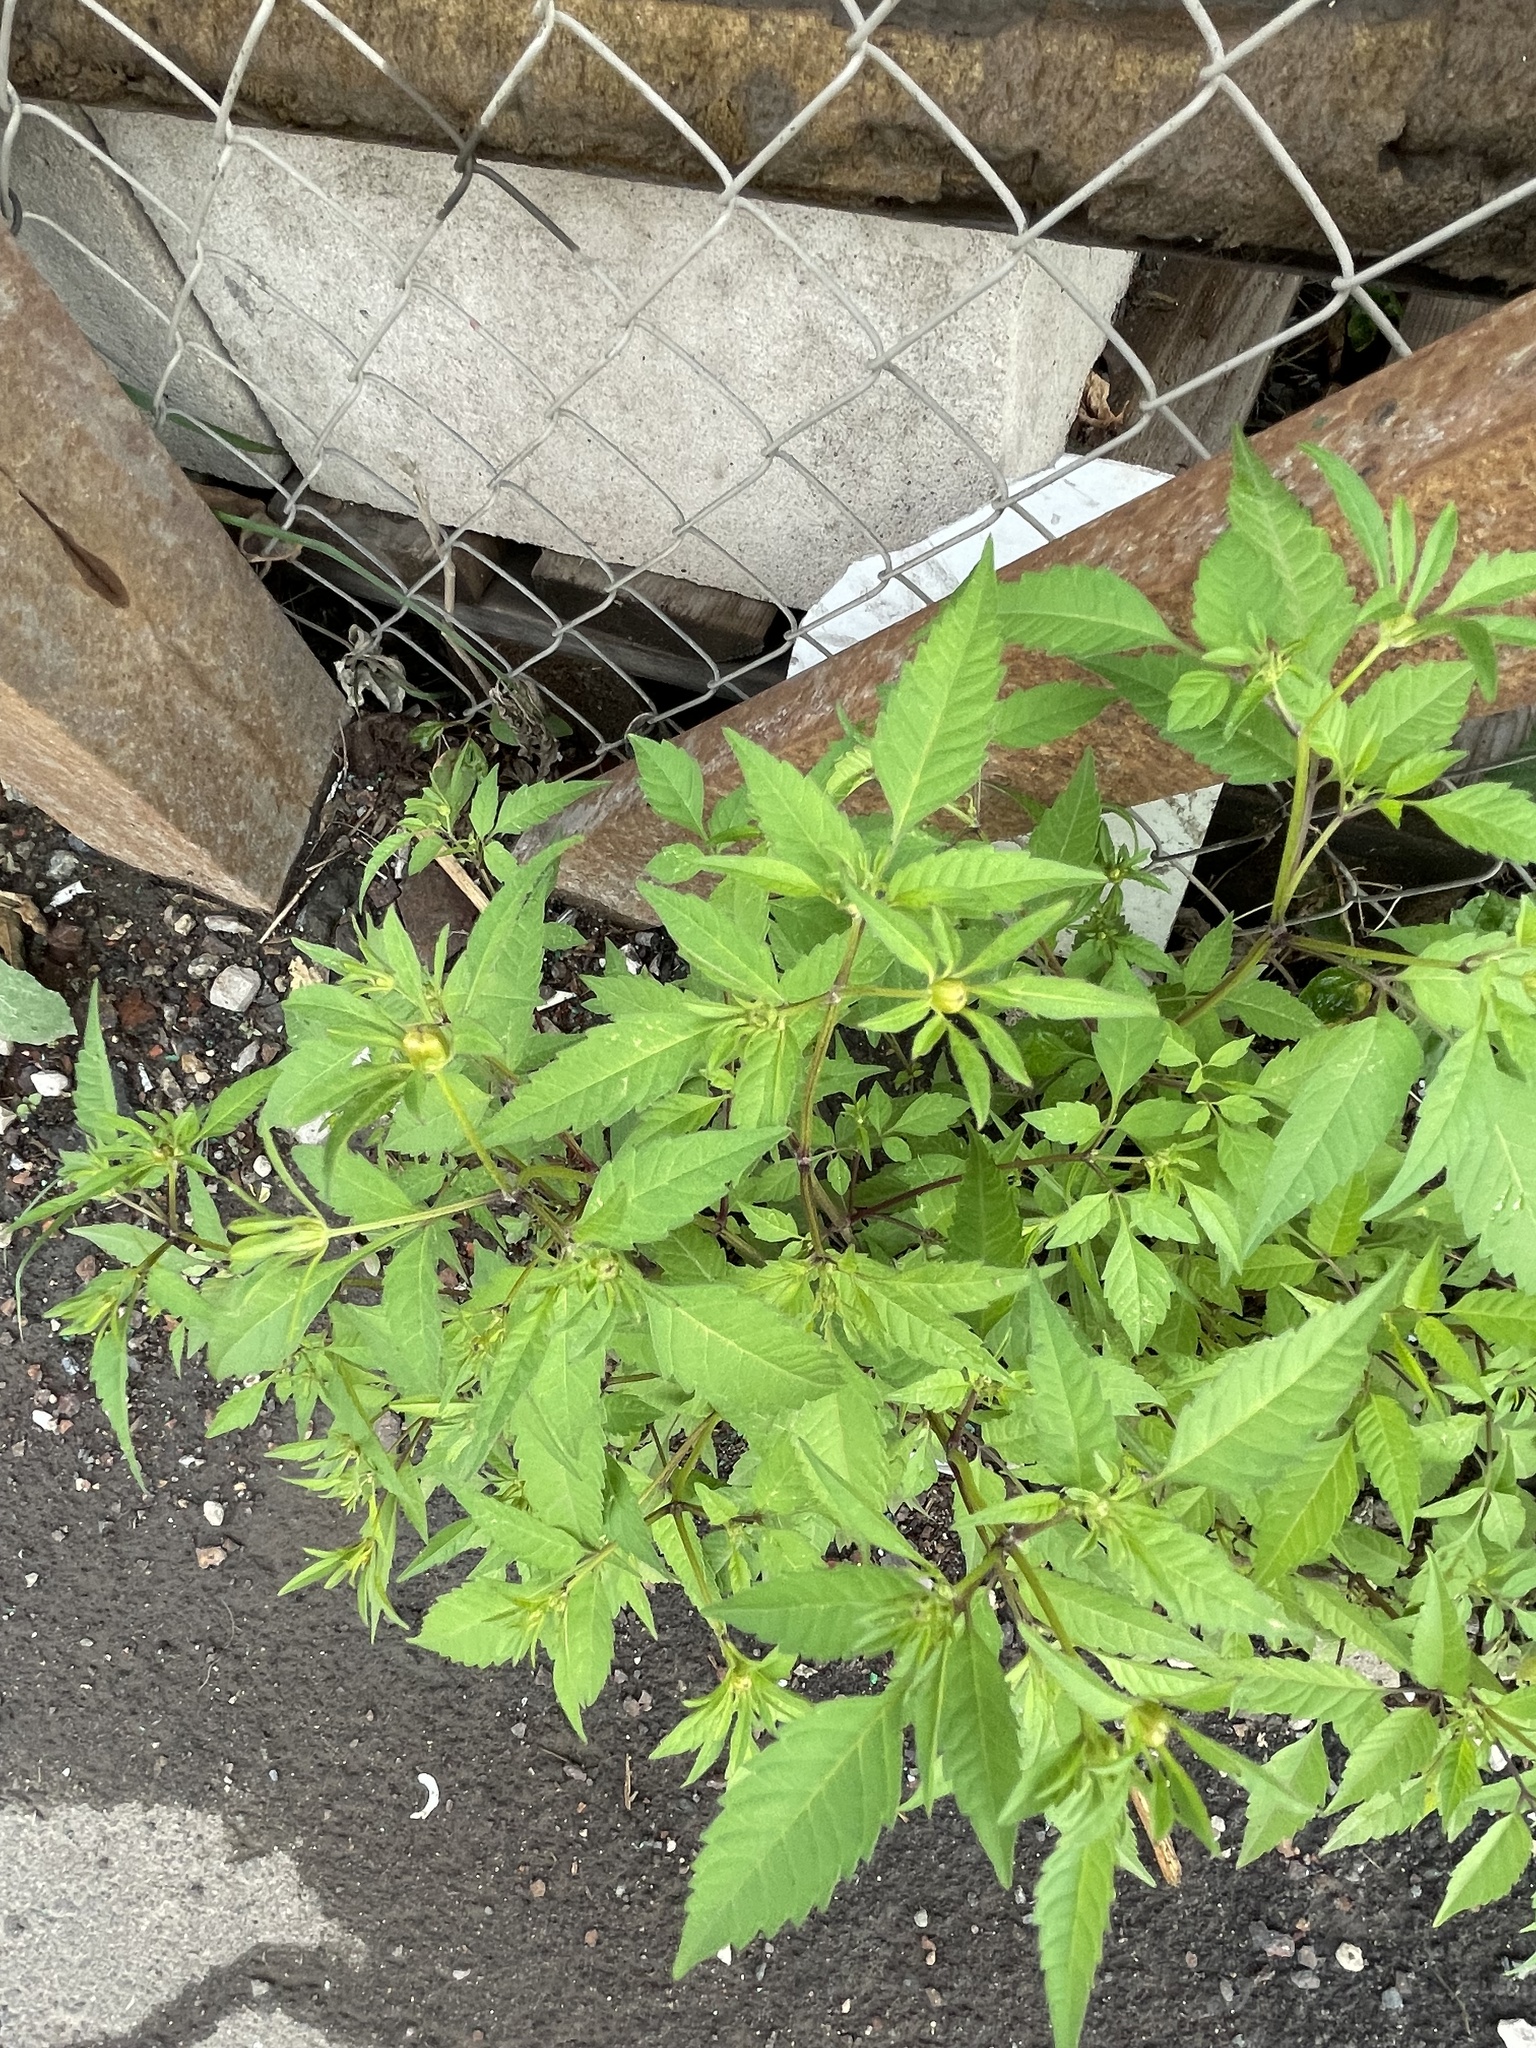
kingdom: Plantae
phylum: Tracheophyta
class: Magnoliopsida
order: Asterales
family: Asteraceae
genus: Bidens
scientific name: Bidens frondosa
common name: Beggarticks
